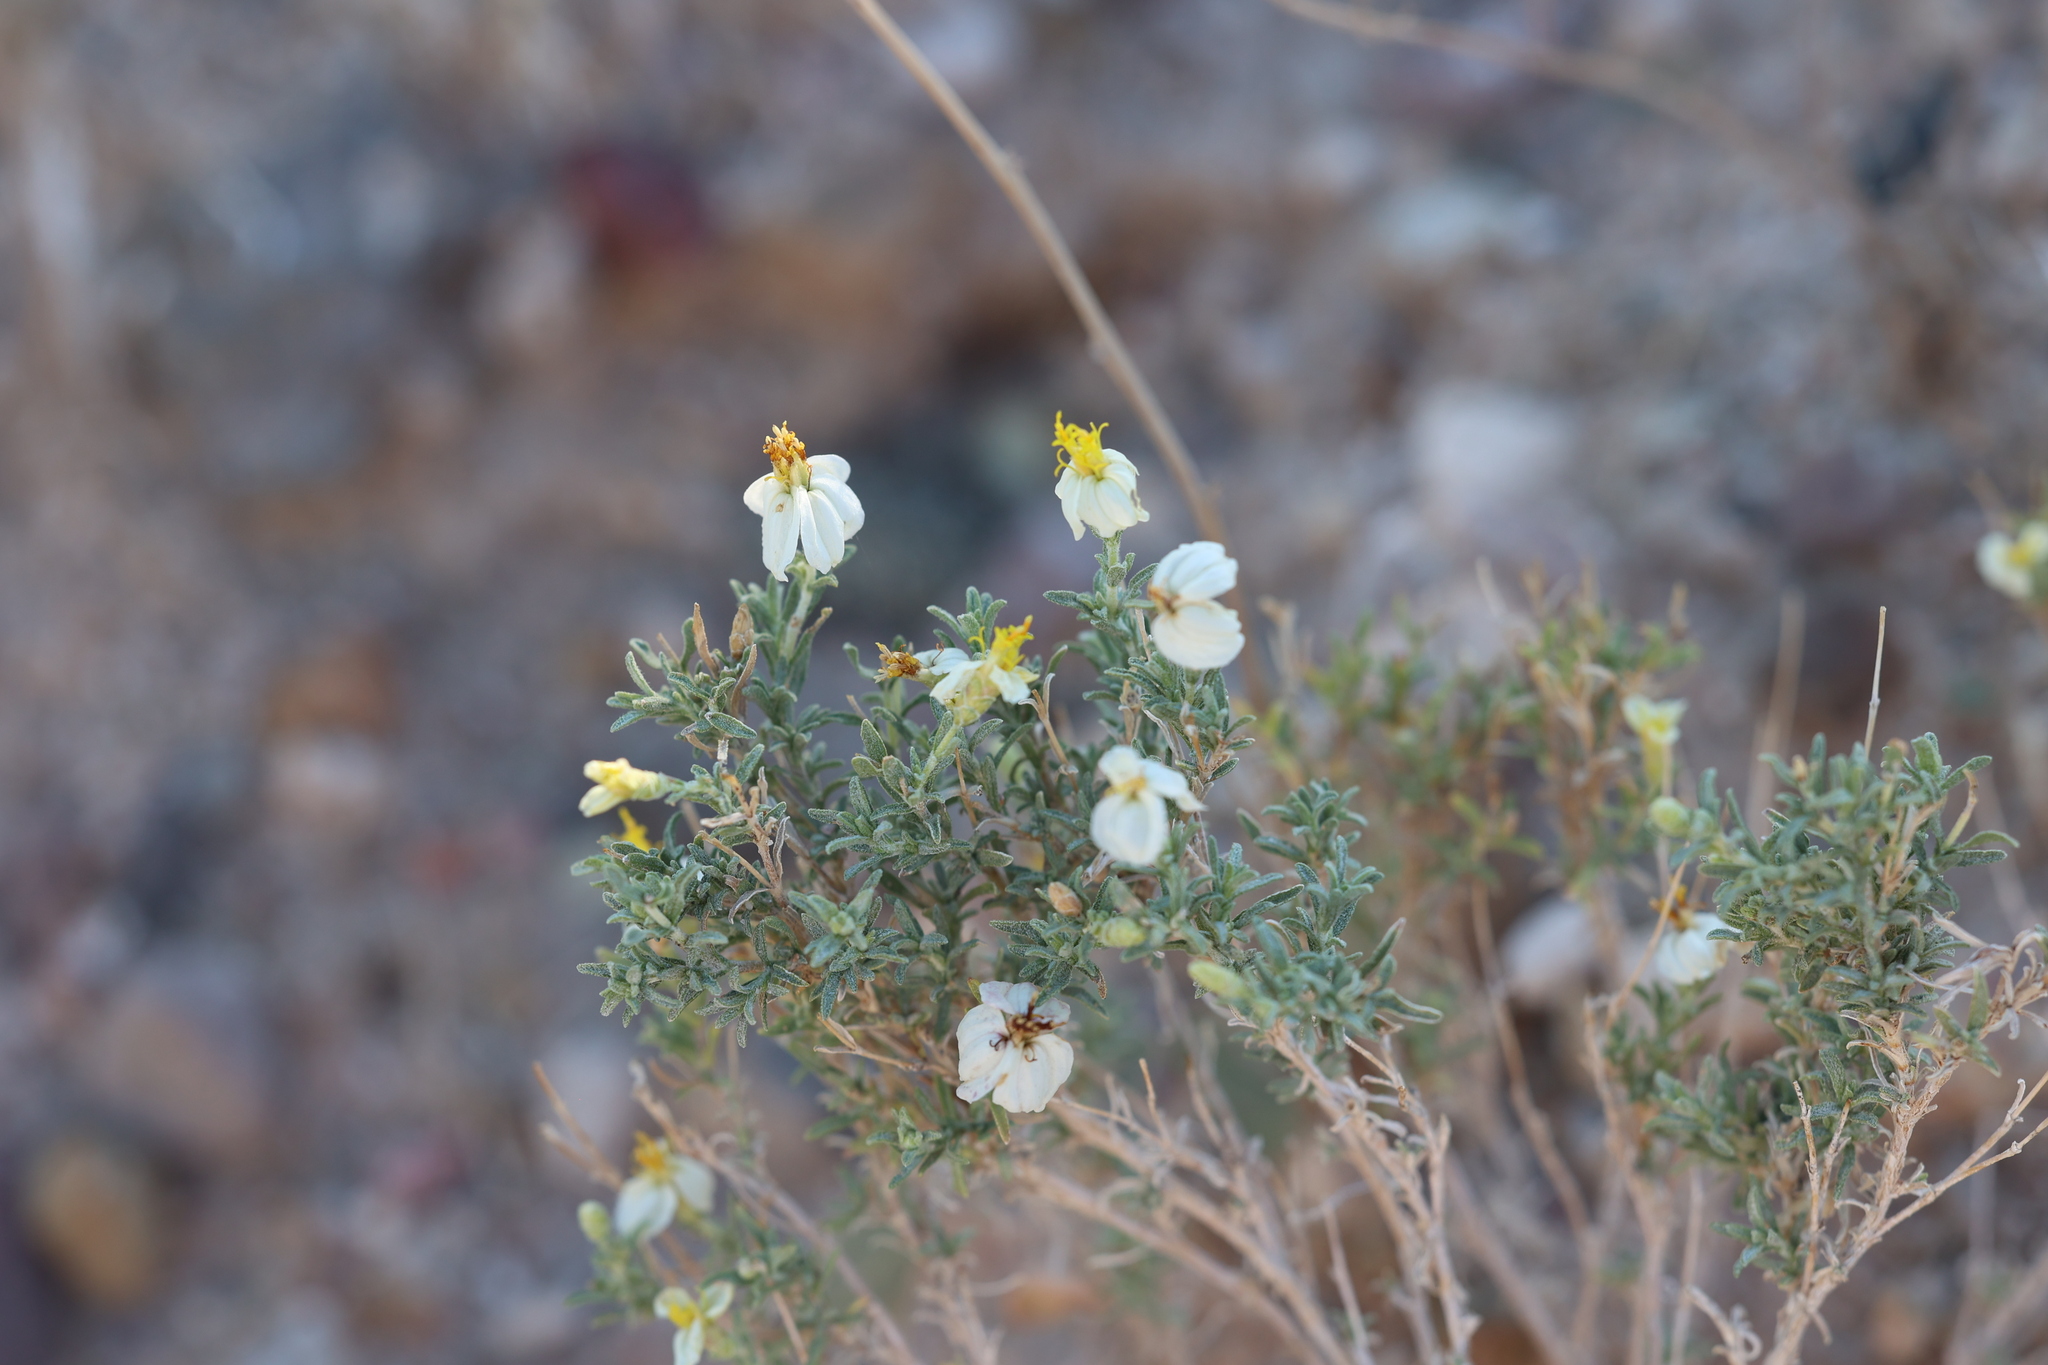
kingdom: Plantae
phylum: Tracheophyta
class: Magnoliopsida
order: Asterales
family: Asteraceae
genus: Zinnia
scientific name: Zinnia acerosa
